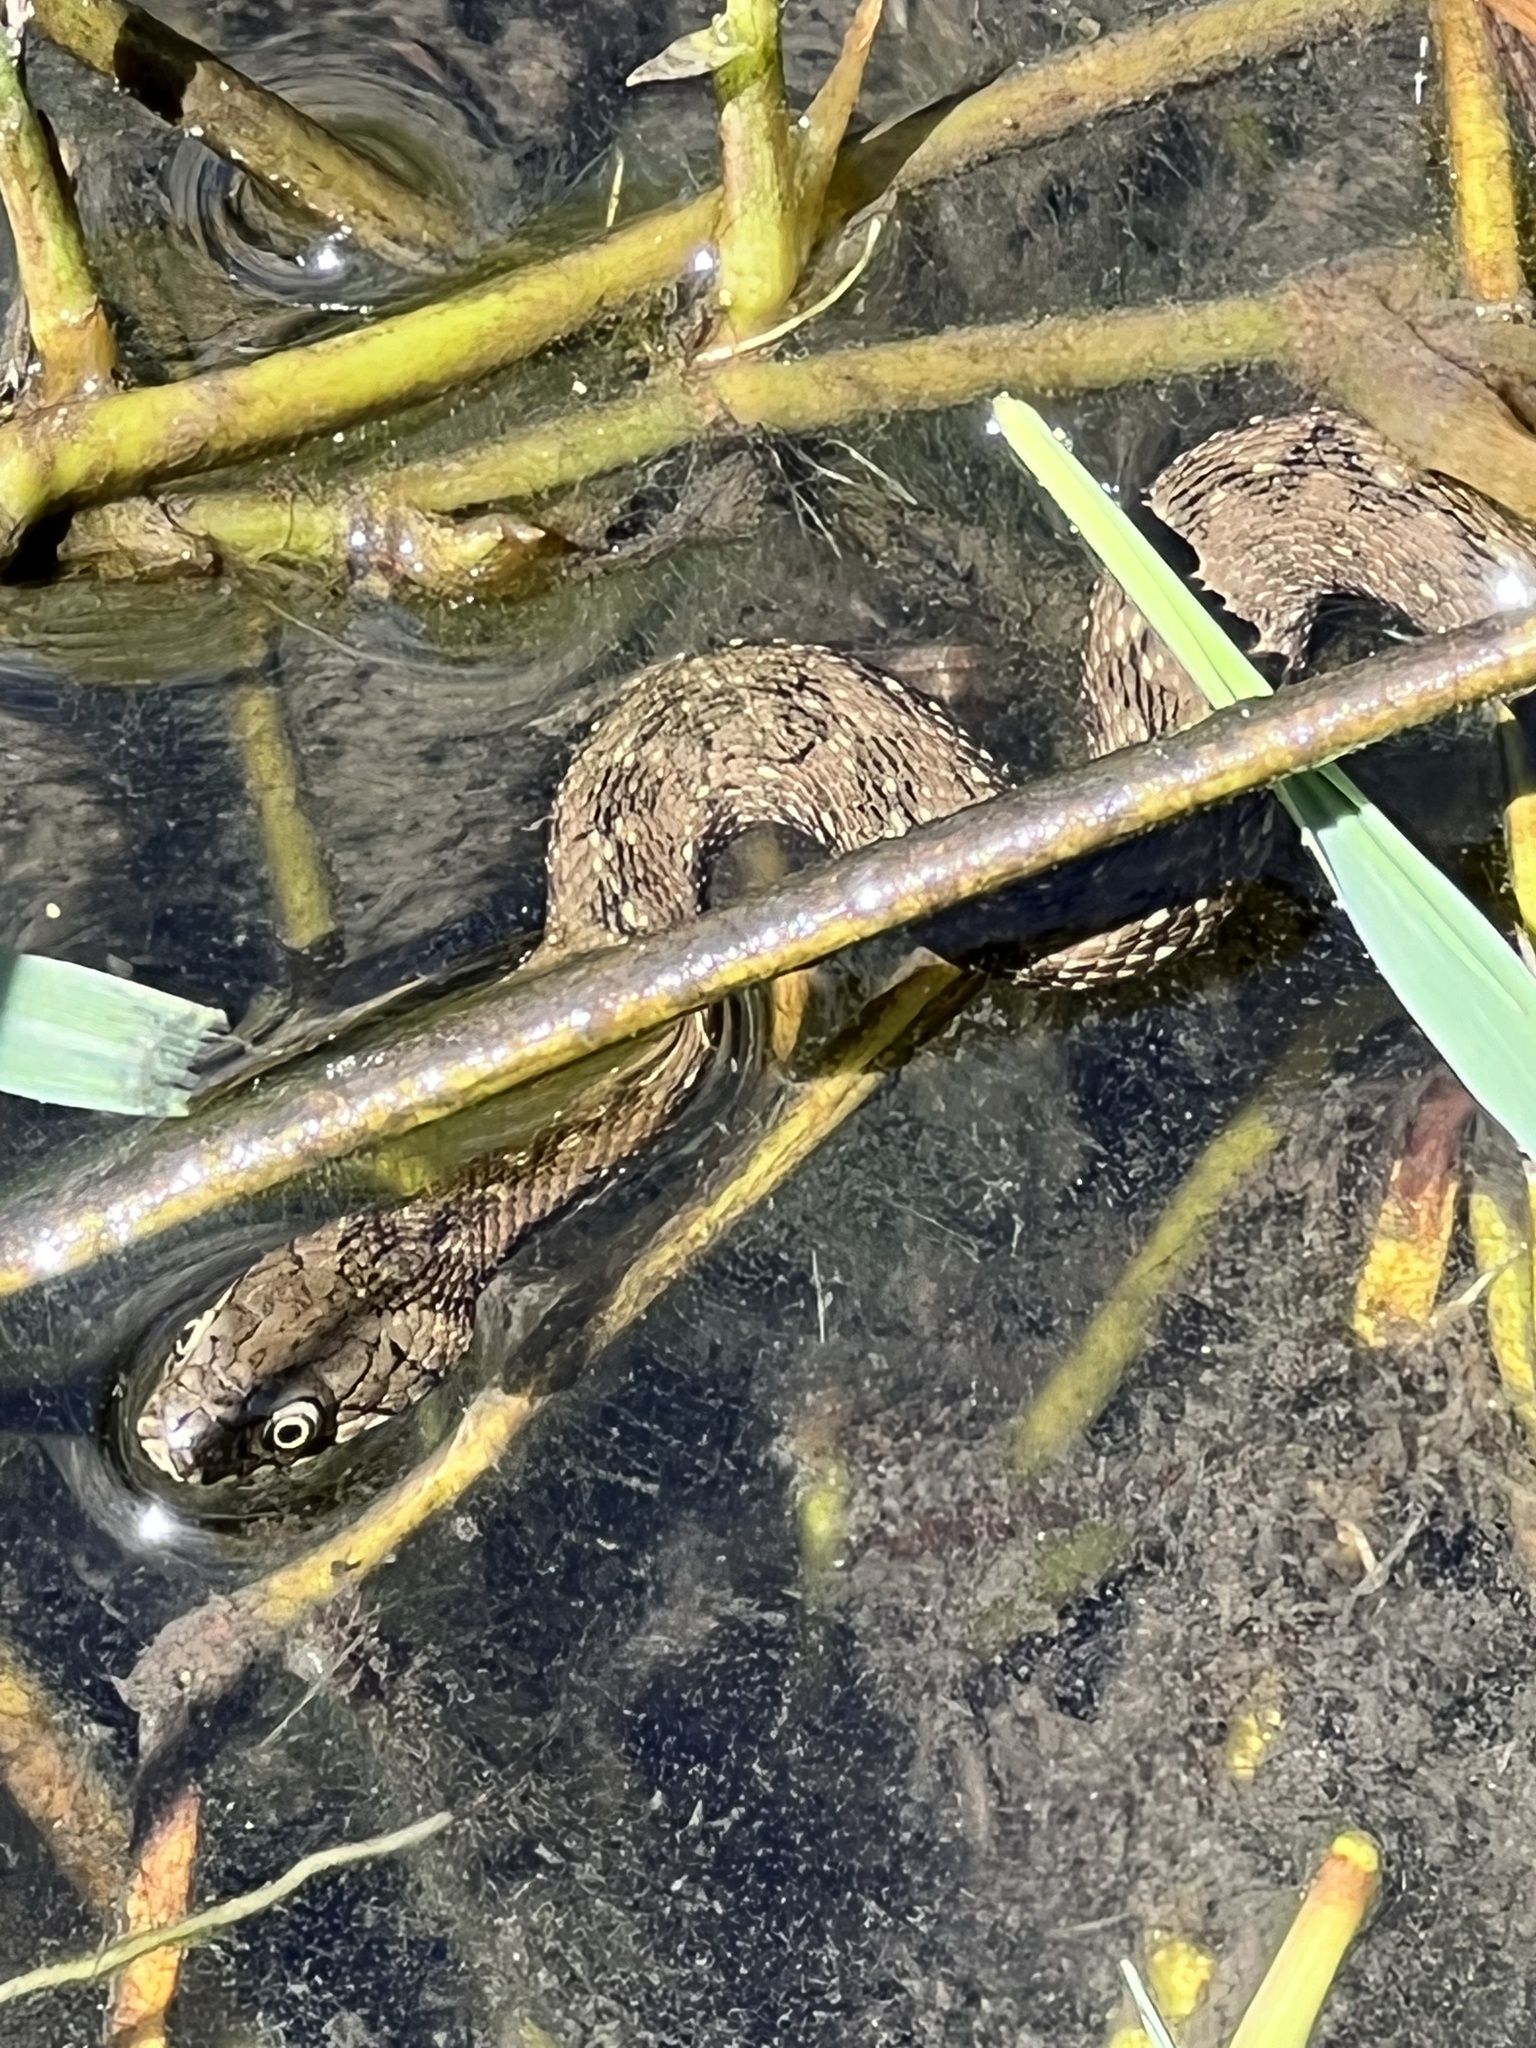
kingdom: Animalia
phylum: Chordata
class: Squamata
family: Colubridae
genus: Natrix
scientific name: Natrix maura
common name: Viperine water snake
